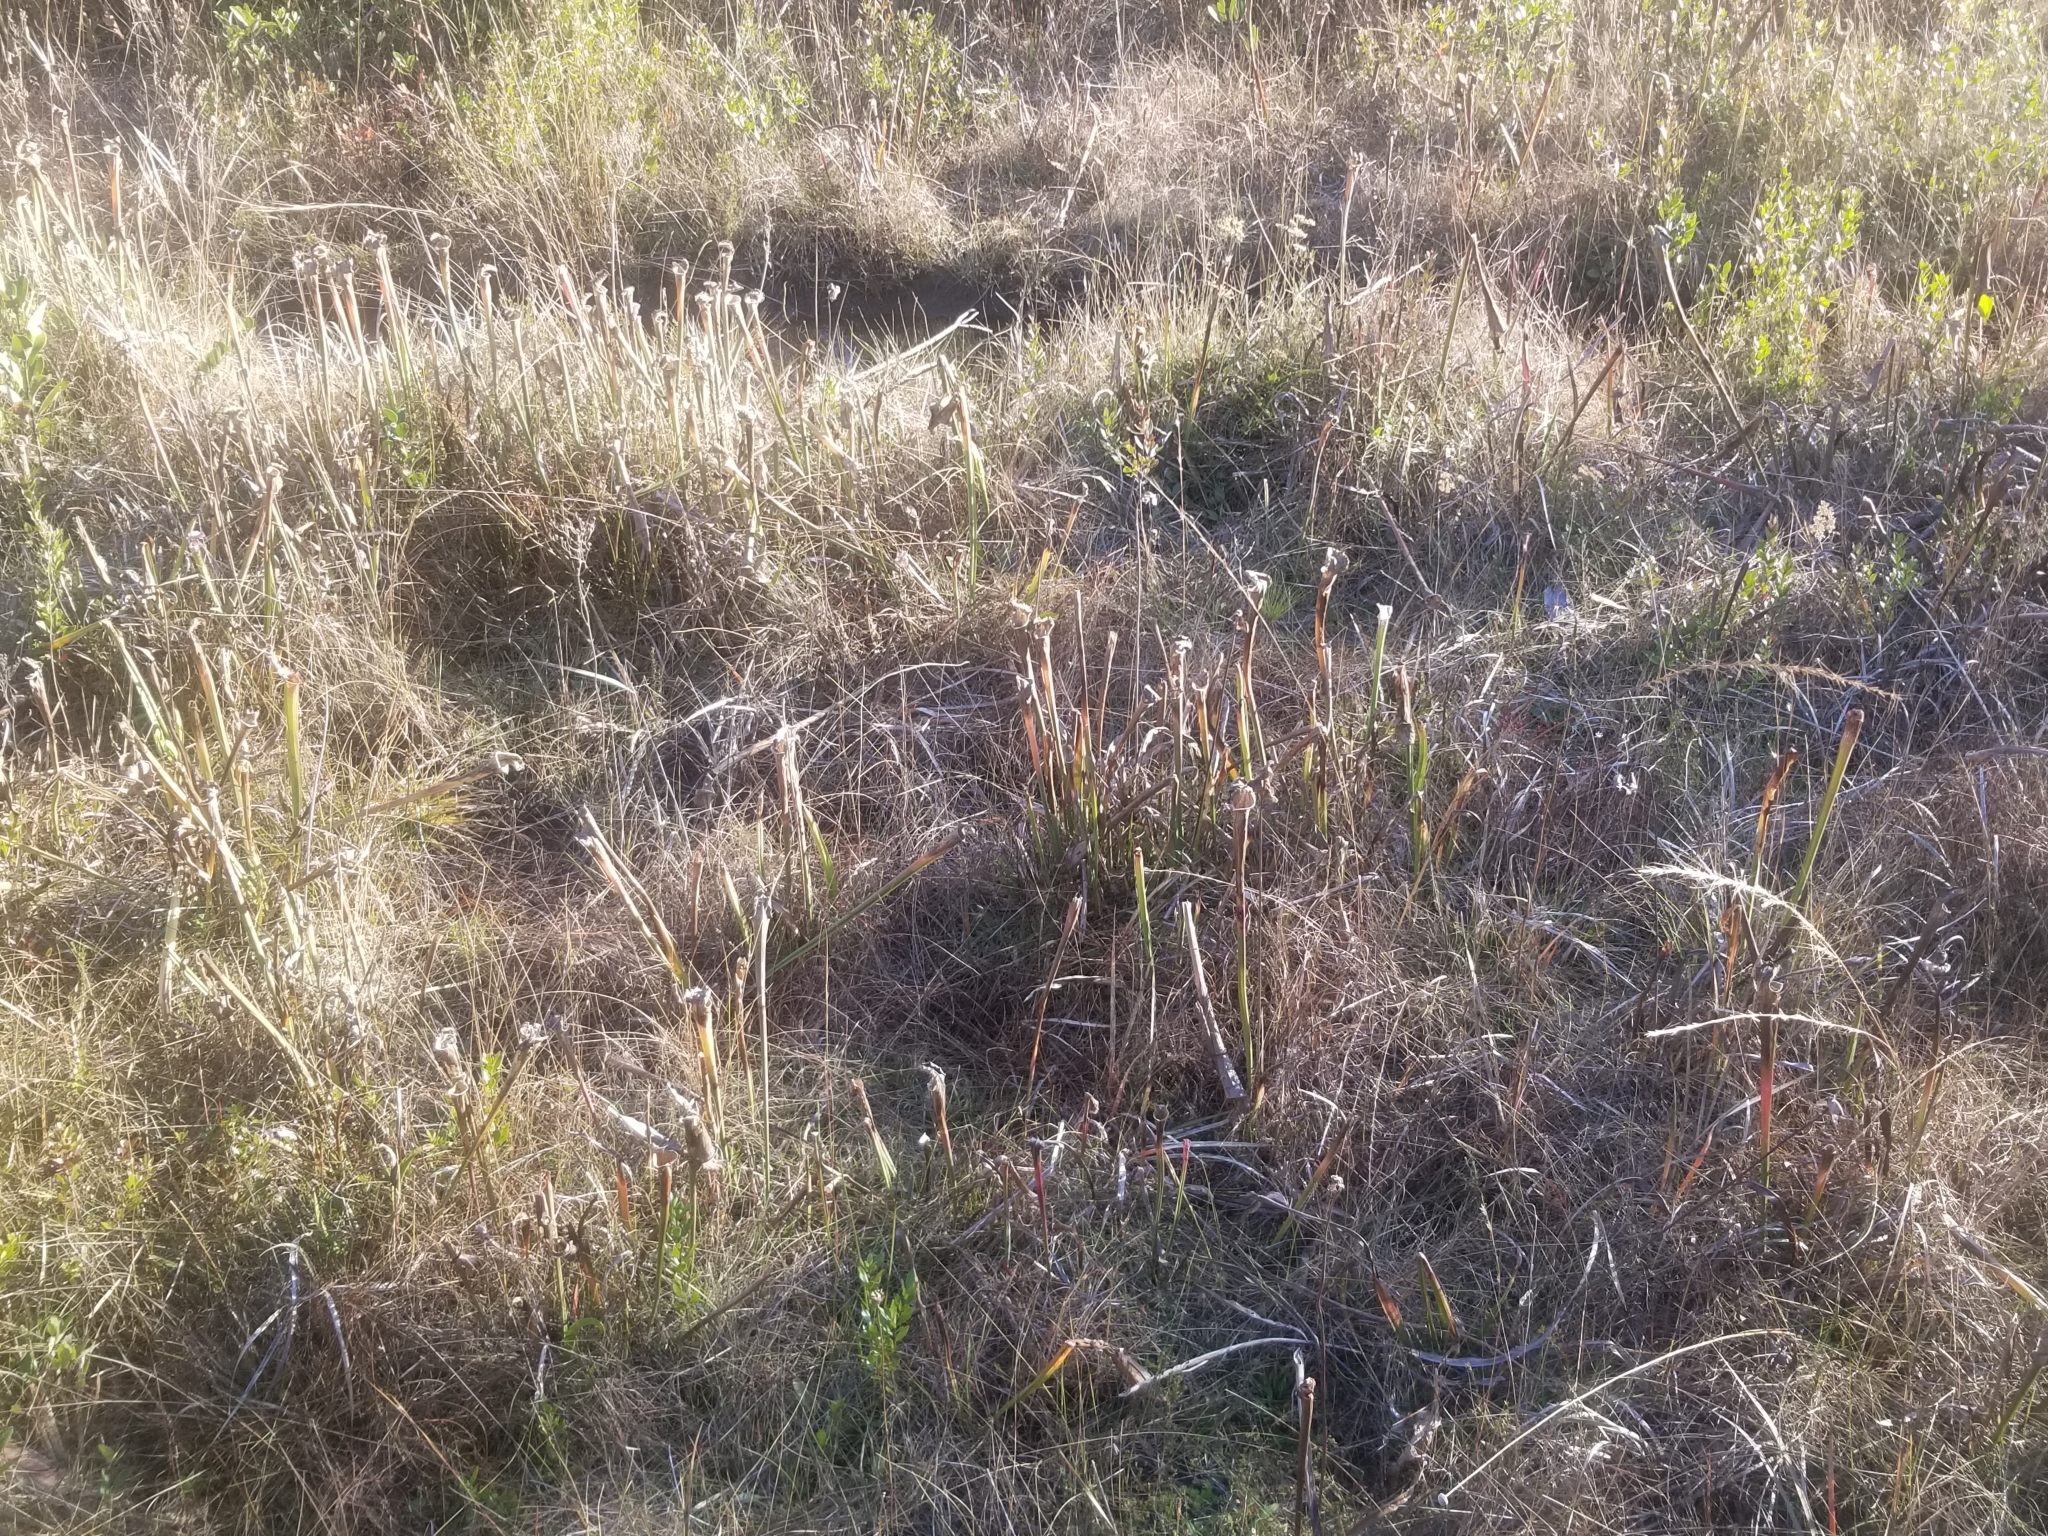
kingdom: Plantae
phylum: Tracheophyta
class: Magnoliopsida
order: Ericales
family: Sarraceniaceae
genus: Sarracenia
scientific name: Sarracenia leucophylla
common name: Purple trumpetleaf
